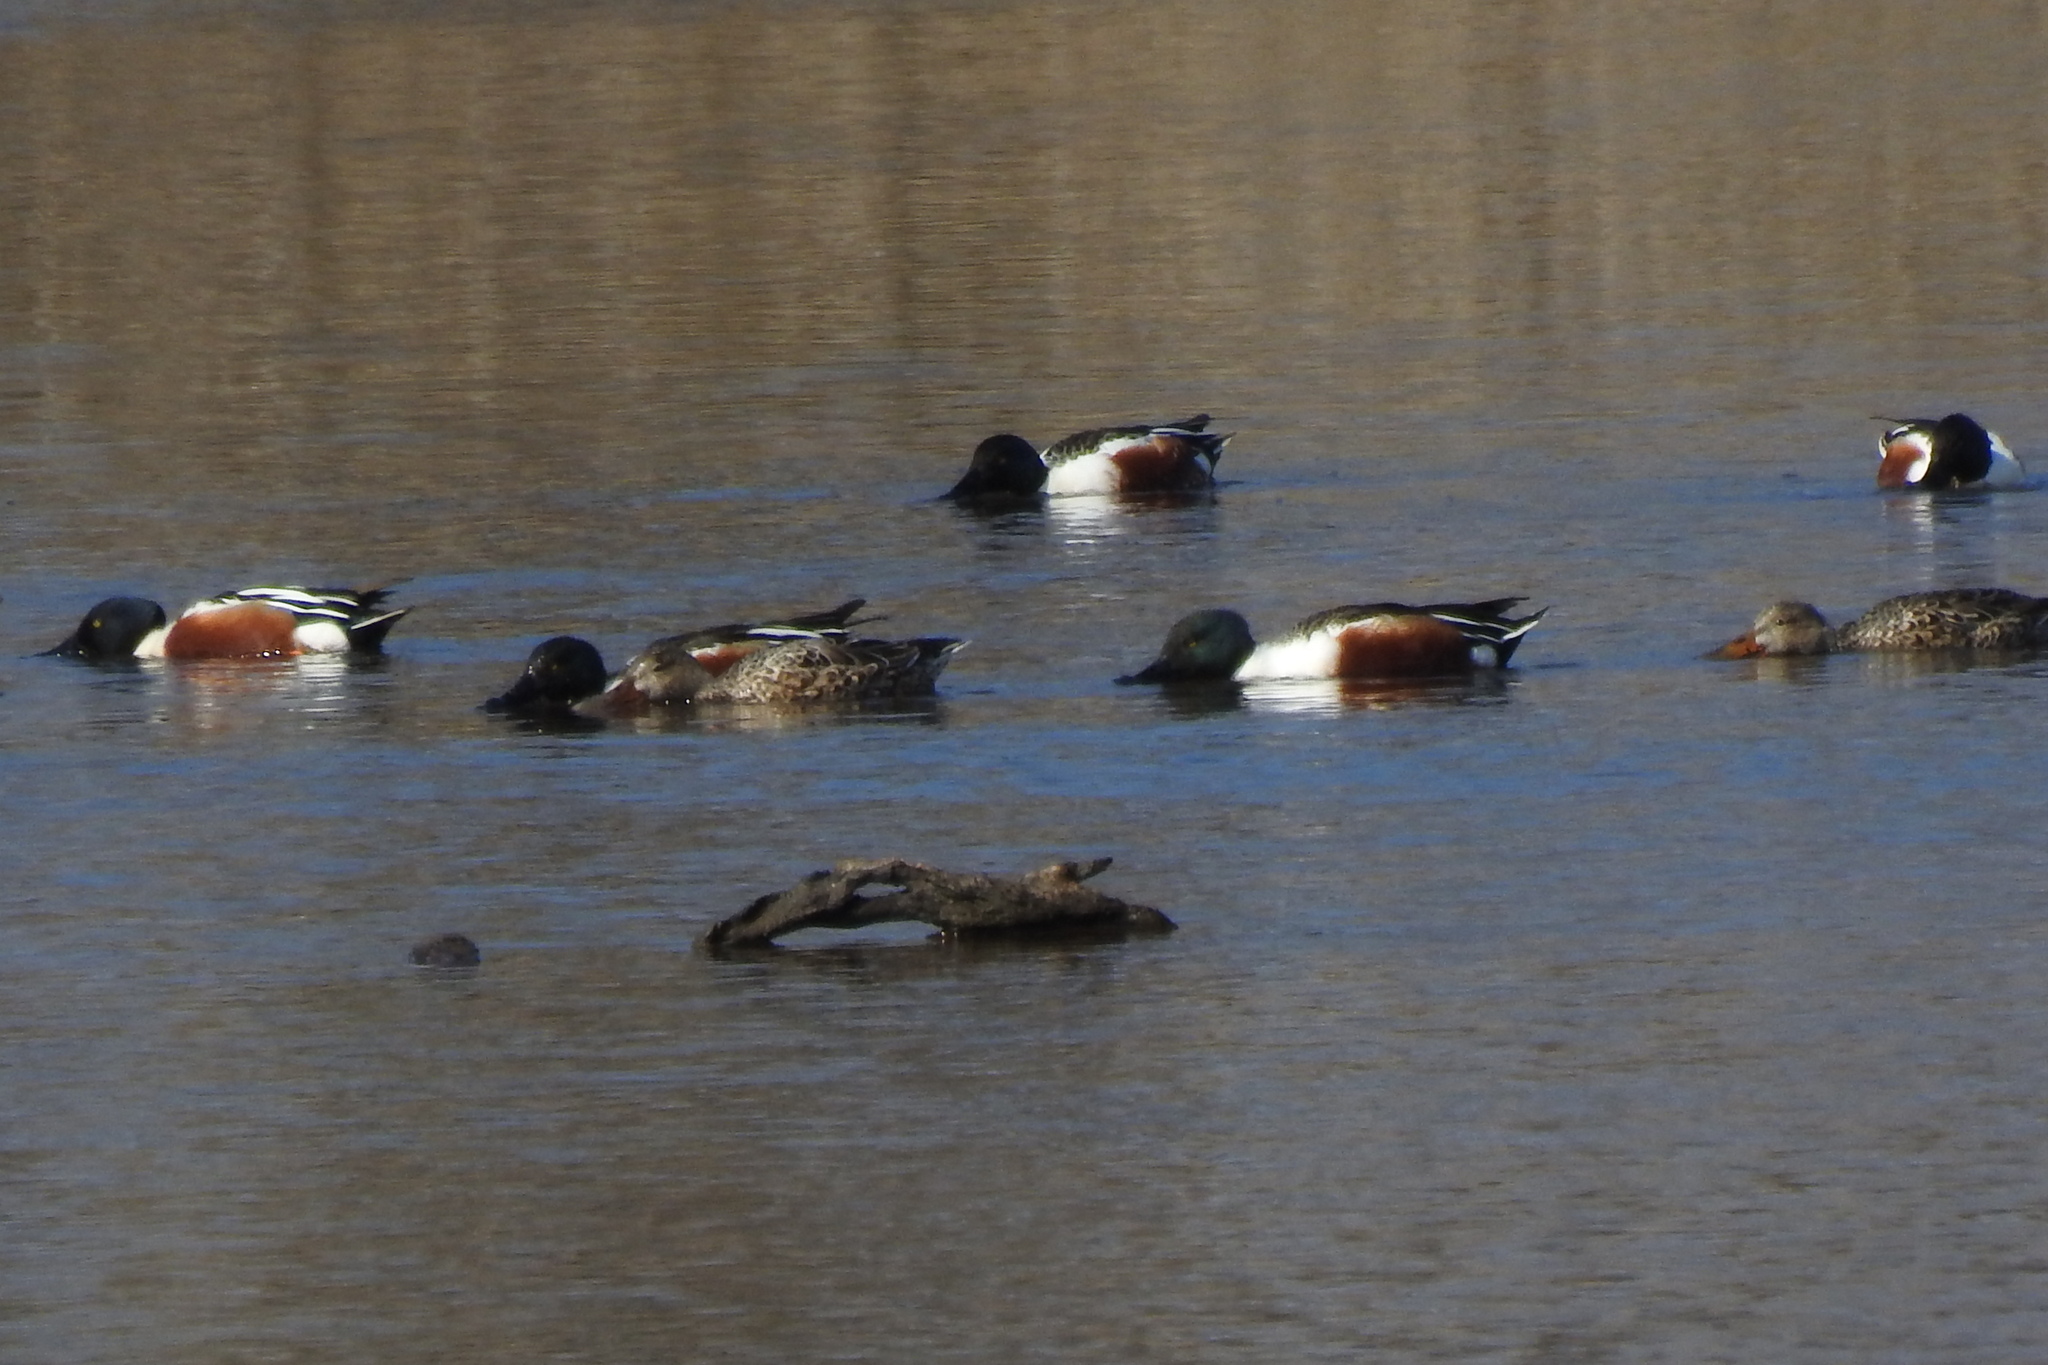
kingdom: Animalia
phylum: Chordata
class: Aves
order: Anseriformes
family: Anatidae
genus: Spatula
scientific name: Spatula clypeata
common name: Northern shoveler
